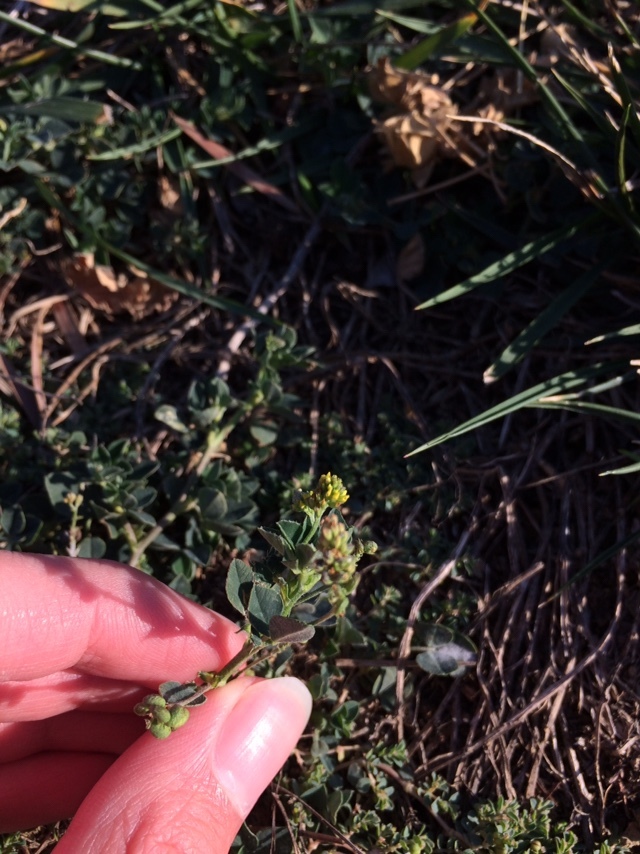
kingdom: Plantae
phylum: Tracheophyta
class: Magnoliopsida
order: Fabales
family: Fabaceae
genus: Medicago
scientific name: Medicago lupulina
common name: Black medick
